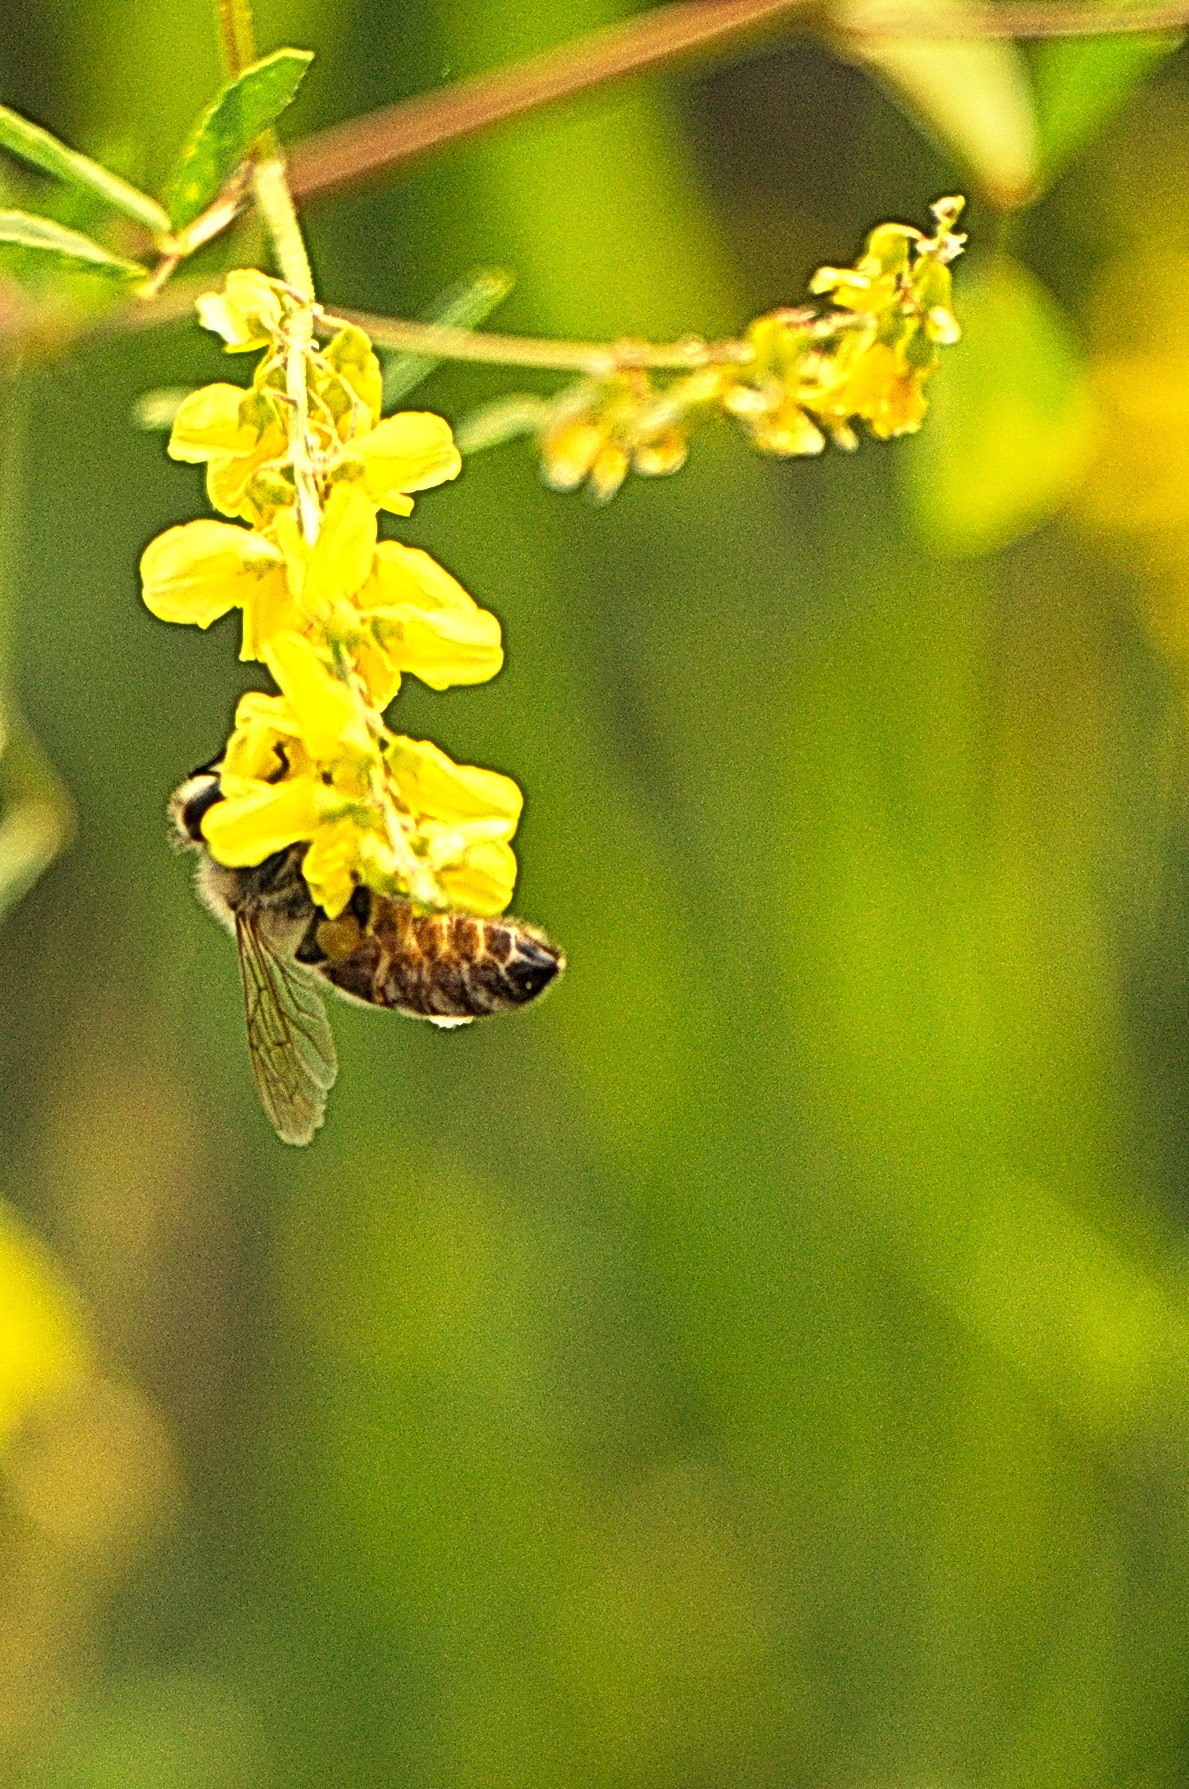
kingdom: Animalia
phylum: Arthropoda
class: Insecta
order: Hymenoptera
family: Apidae
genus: Apis
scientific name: Apis mellifera
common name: Honey bee
